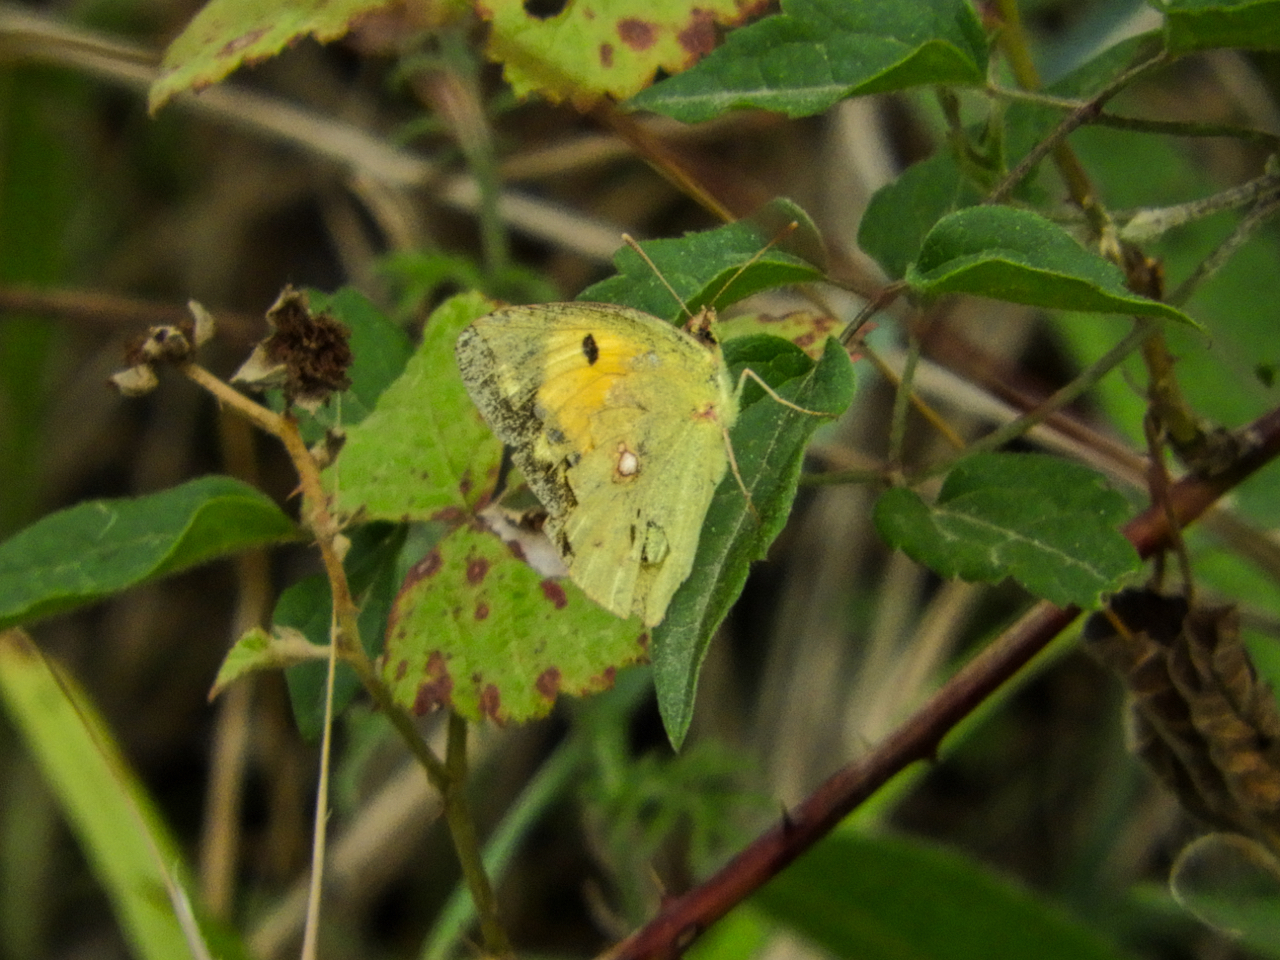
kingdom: Animalia
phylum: Arthropoda
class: Insecta
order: Lepidoptera
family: Pieridae
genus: Colias
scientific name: Colias croceus
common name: Clouded yellow
